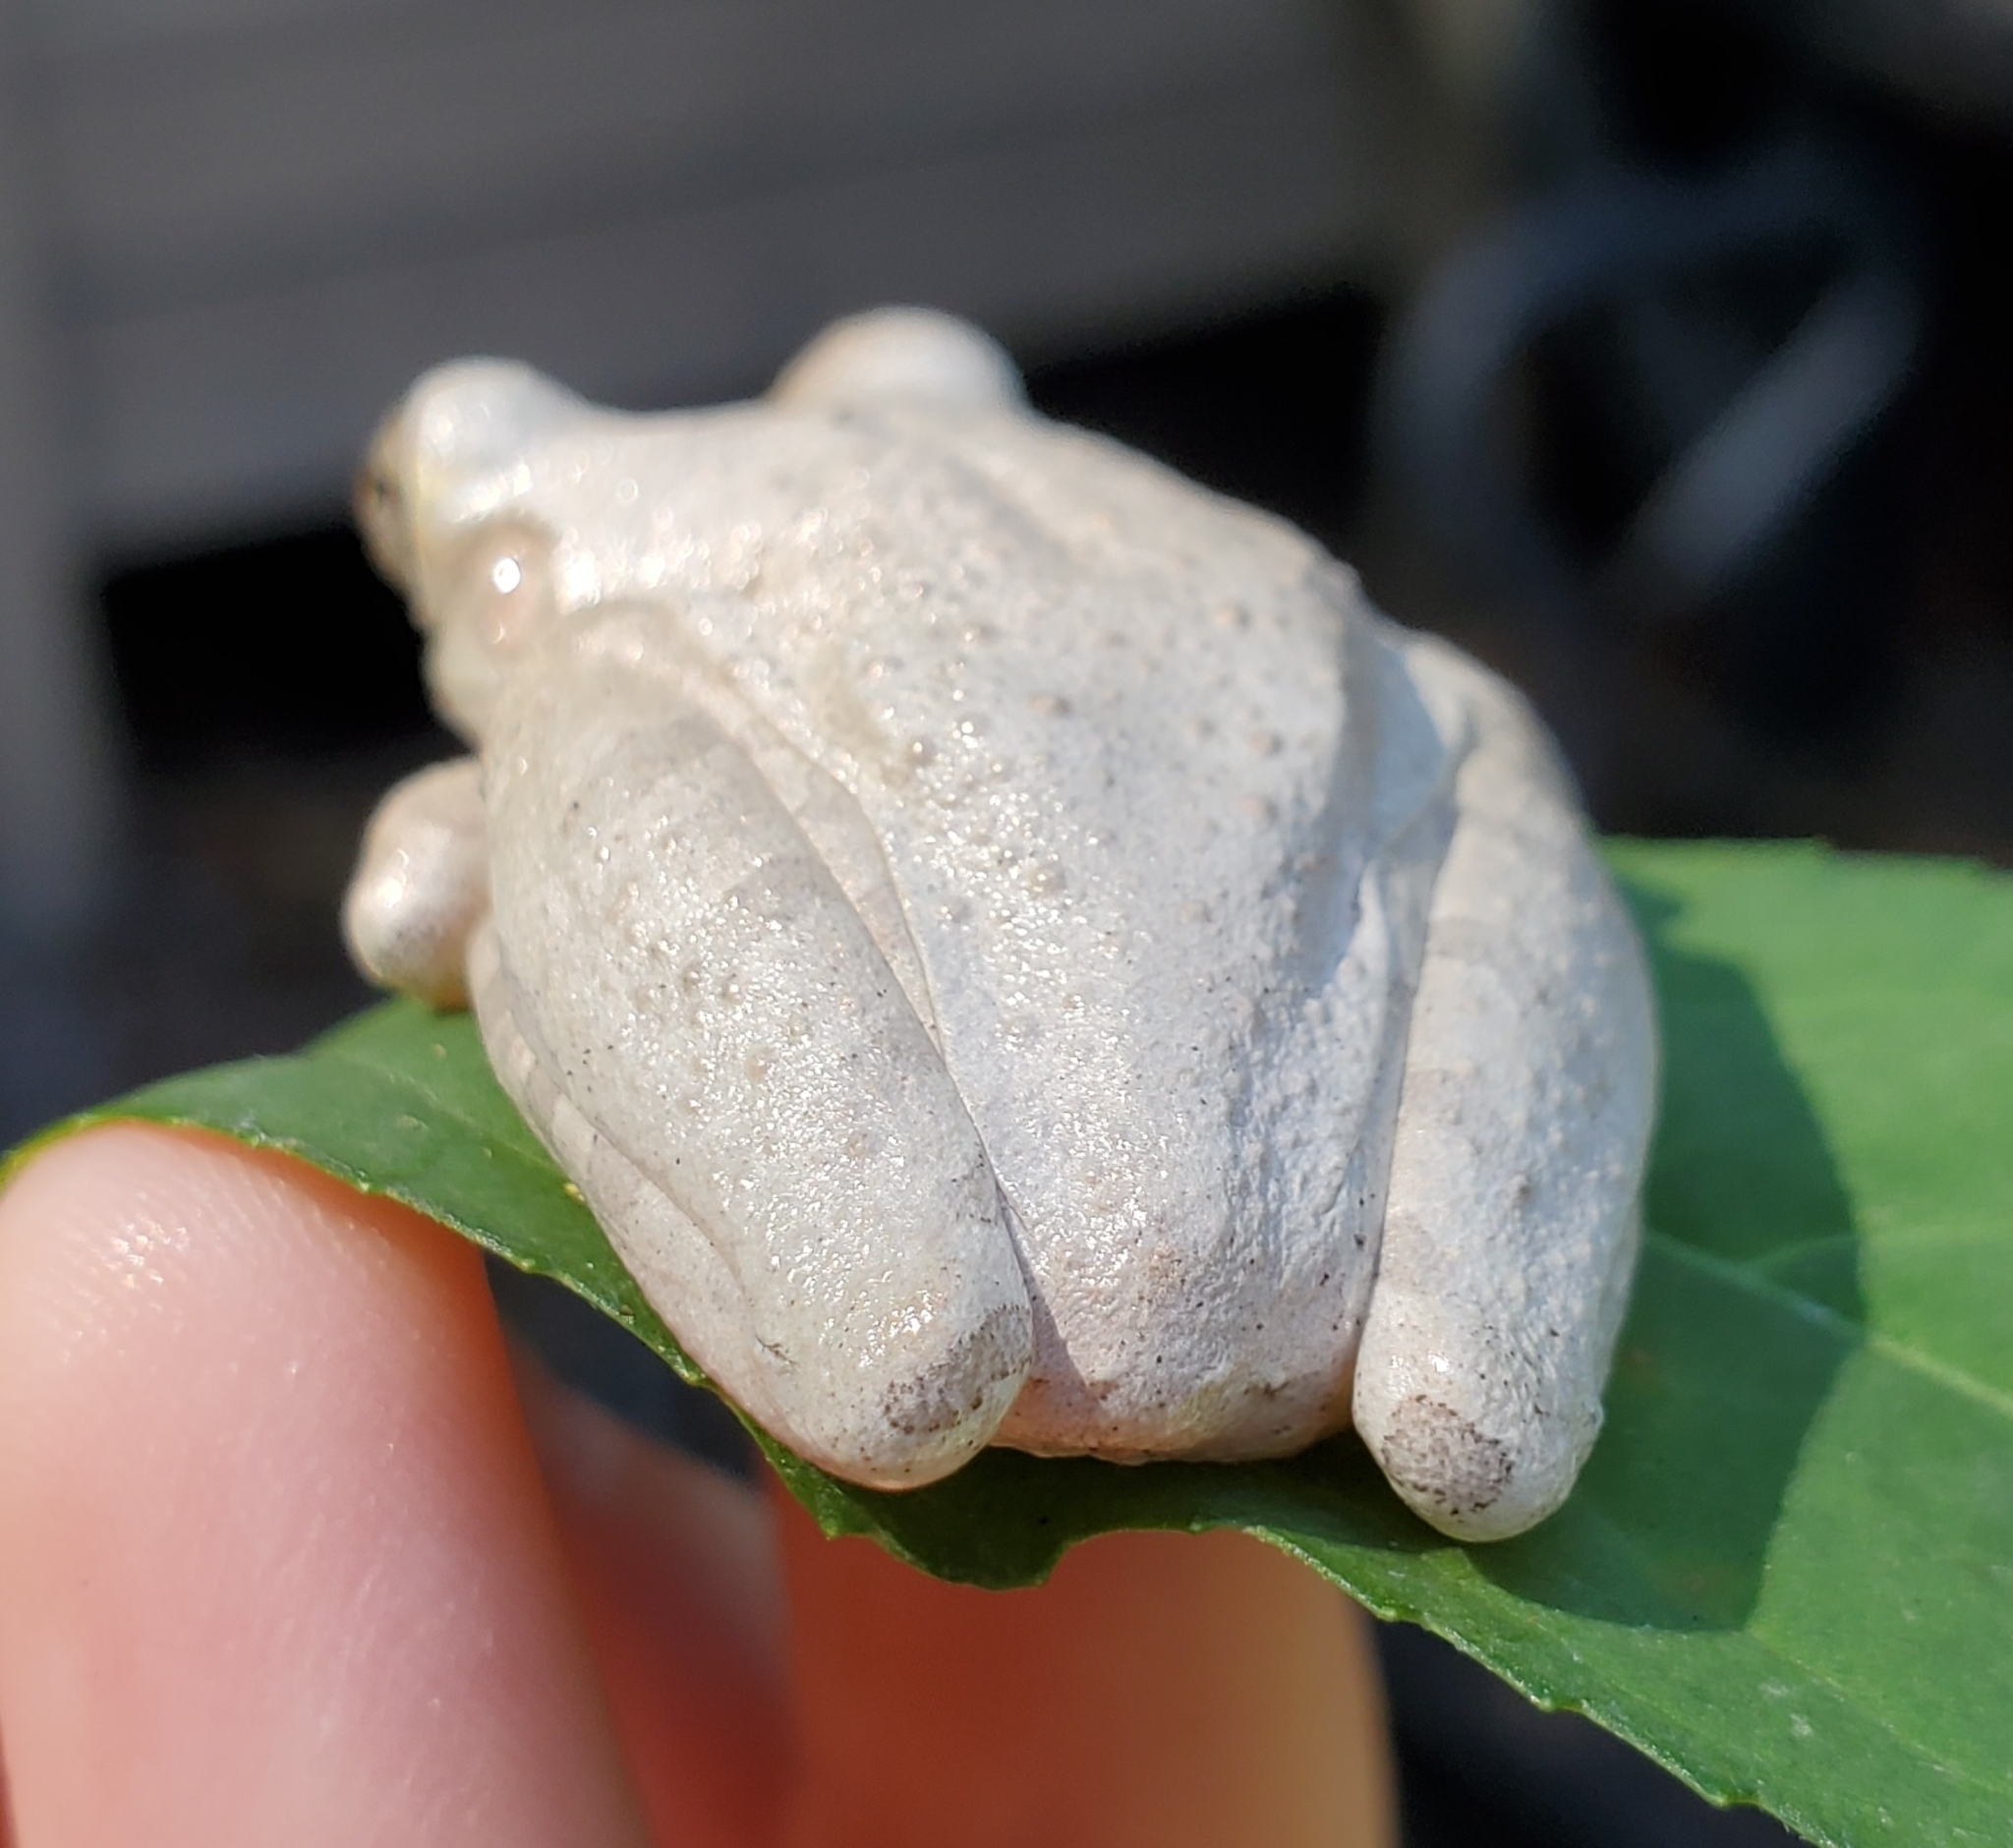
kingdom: Animalia
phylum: Chordata
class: Amphibia
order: Anura
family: Hylidae
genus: Osteopilus
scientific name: Osteopilus septentrionalis
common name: Cuban treefrog
